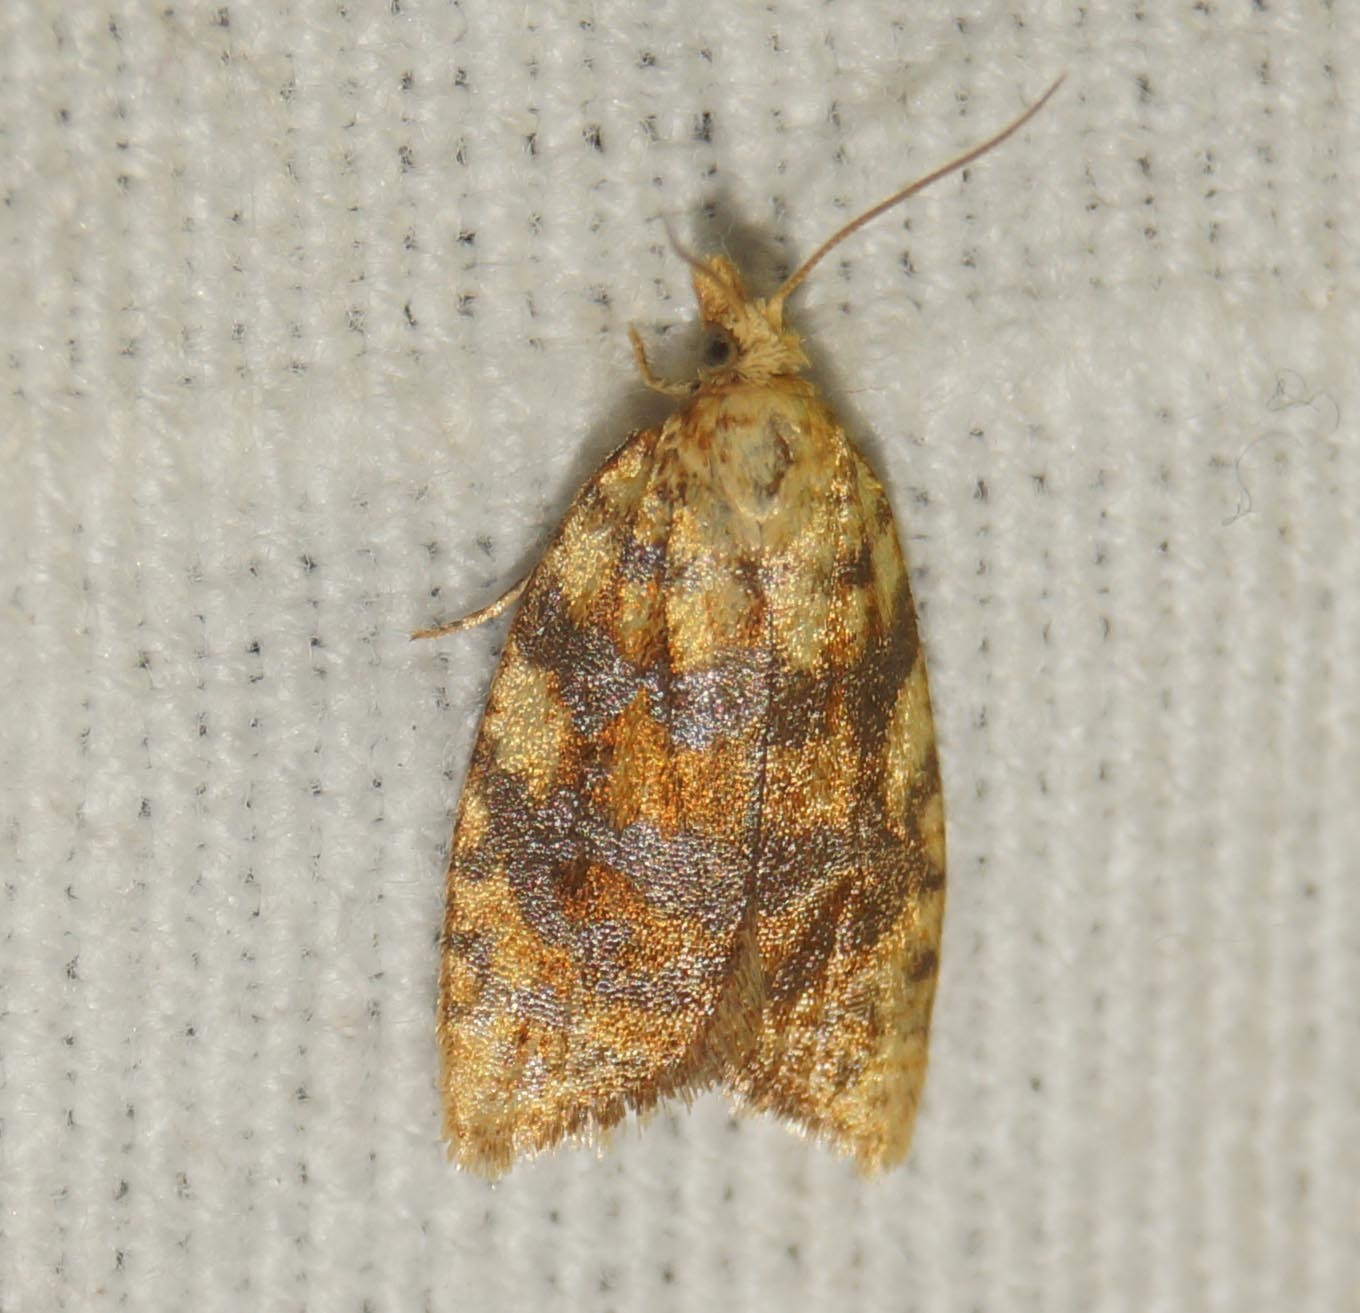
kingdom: Animalia
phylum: Arthropoda
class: Insecta
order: Lepidoptera
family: Tortricidae
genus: Aleimma
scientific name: Aleimma loeflingiana
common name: Yellow oak button
